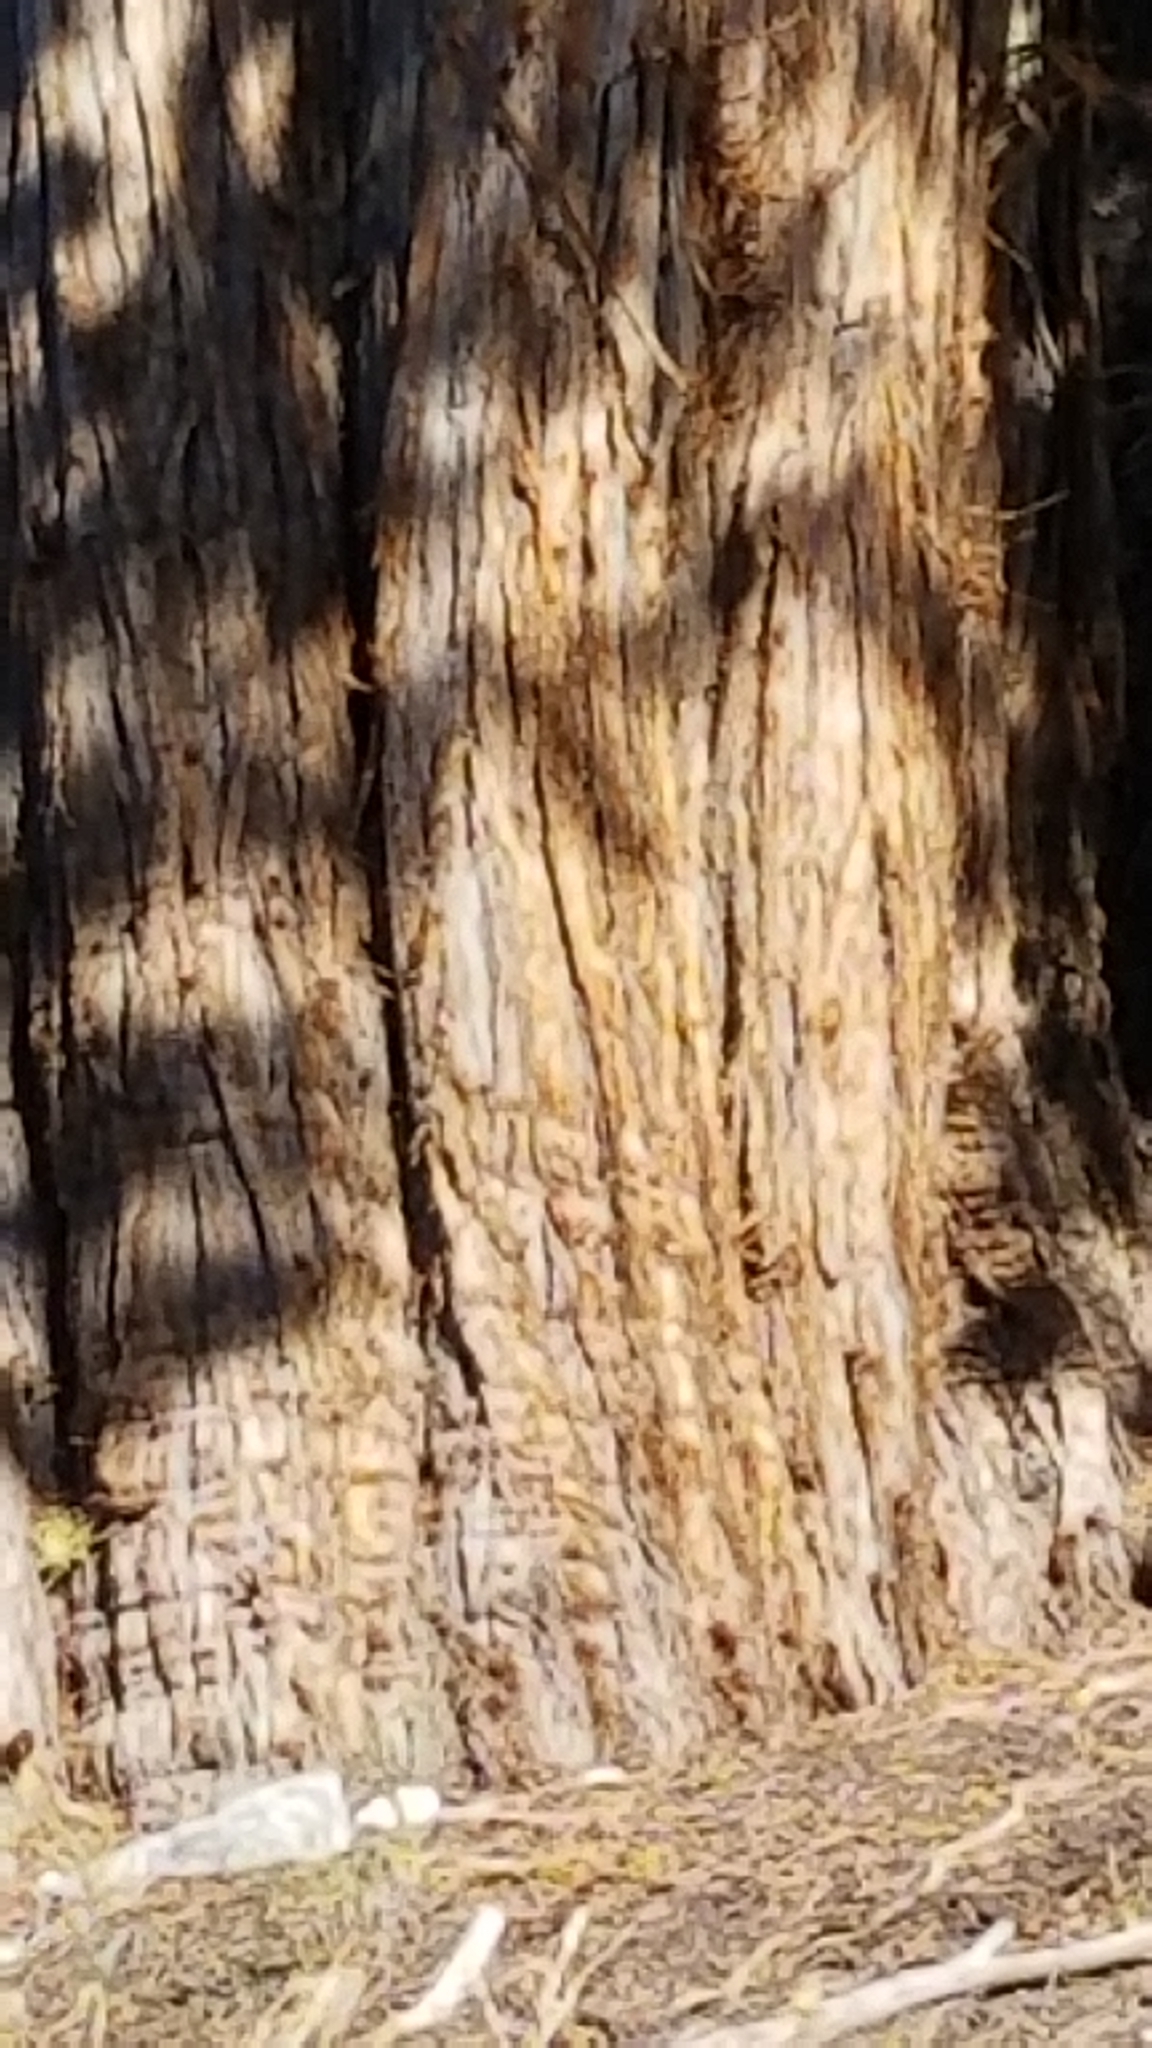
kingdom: Plantae
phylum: Tracheophyta
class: Pinopsida
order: Pinales
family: Cupressaceae
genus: Juniperus
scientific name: Juniperus occidentalis
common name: Western juniper
